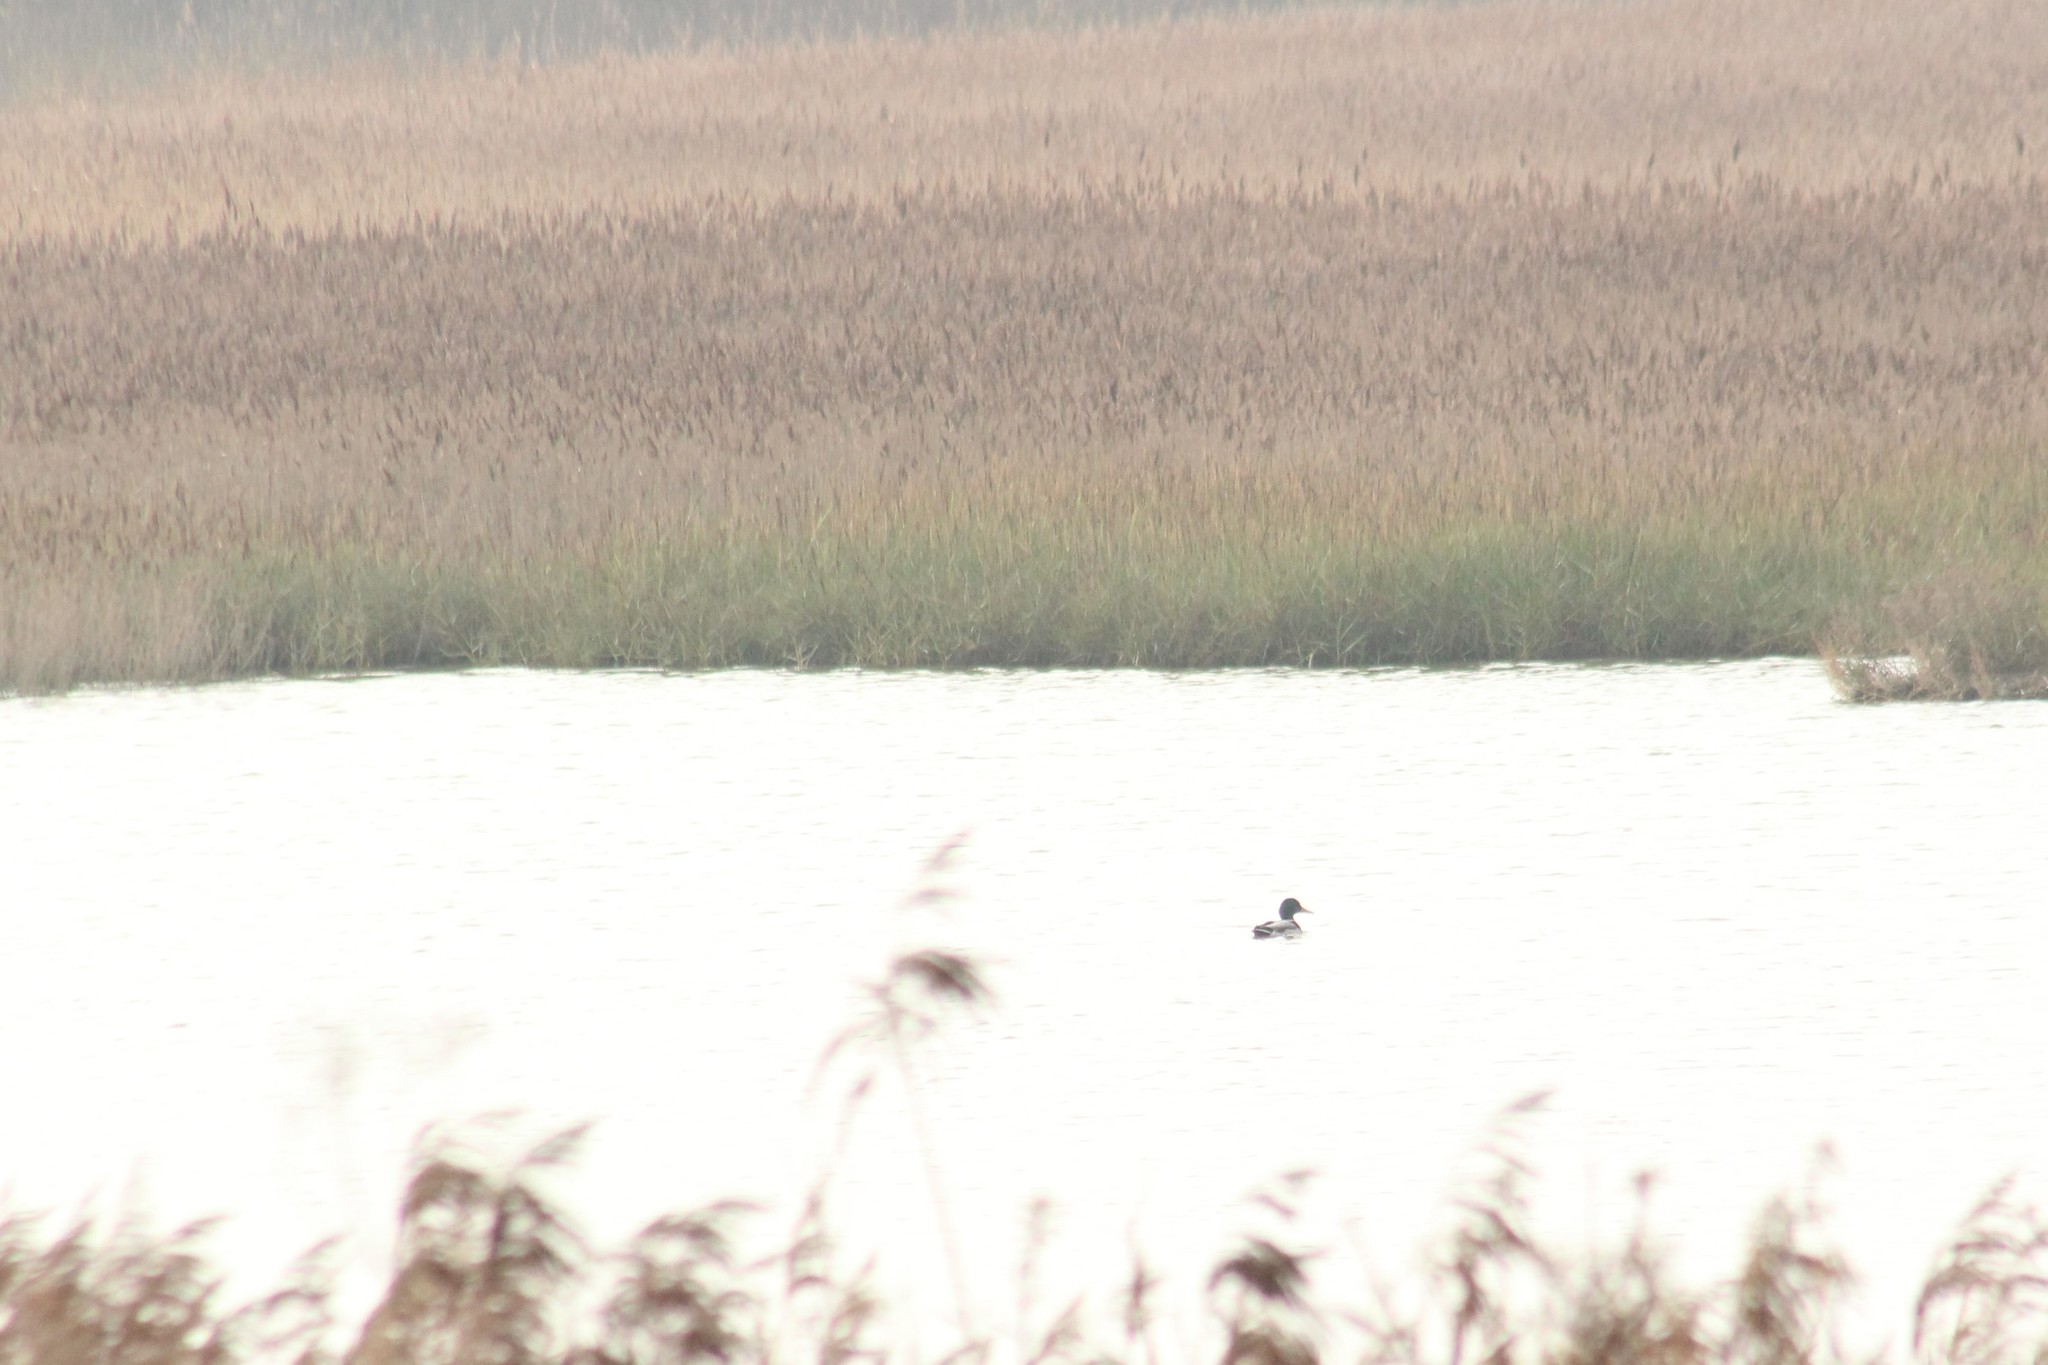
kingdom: Animalia
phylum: Chordata
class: Aves
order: Anseriformes
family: Anatidae
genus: Anas
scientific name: Anas platyrhynchos
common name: Mallard
